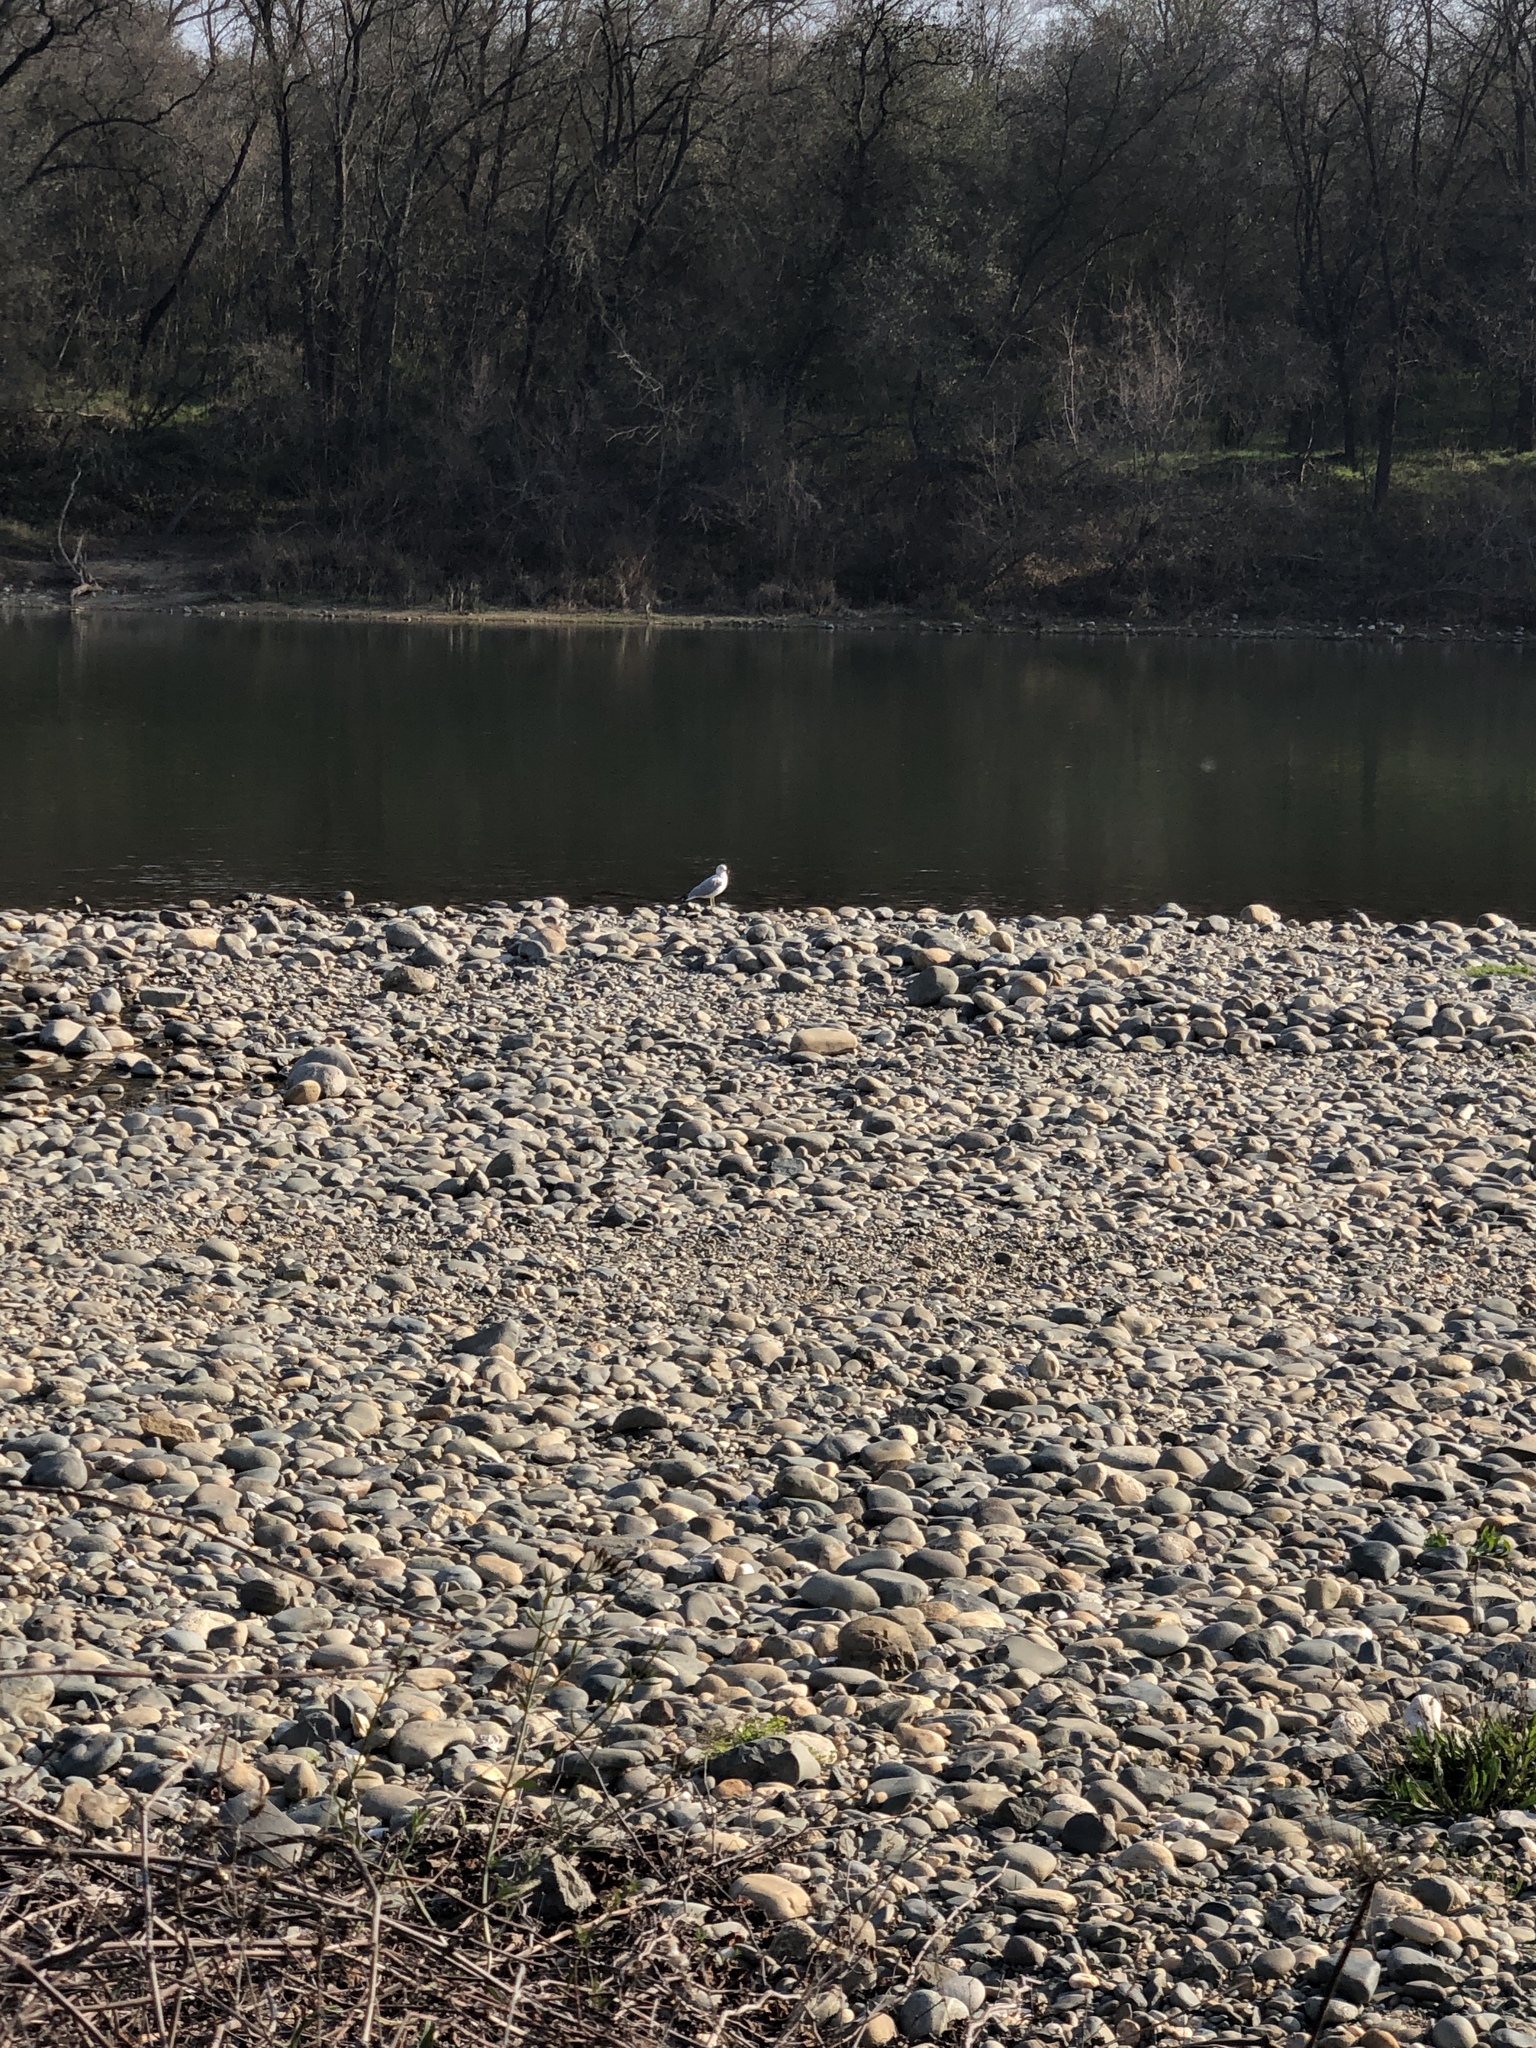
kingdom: Animalia
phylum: Chordata
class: Aves
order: Charadriiformes
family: Laridae
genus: Larus
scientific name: Larus delawarensis
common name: Ring-billed gull
